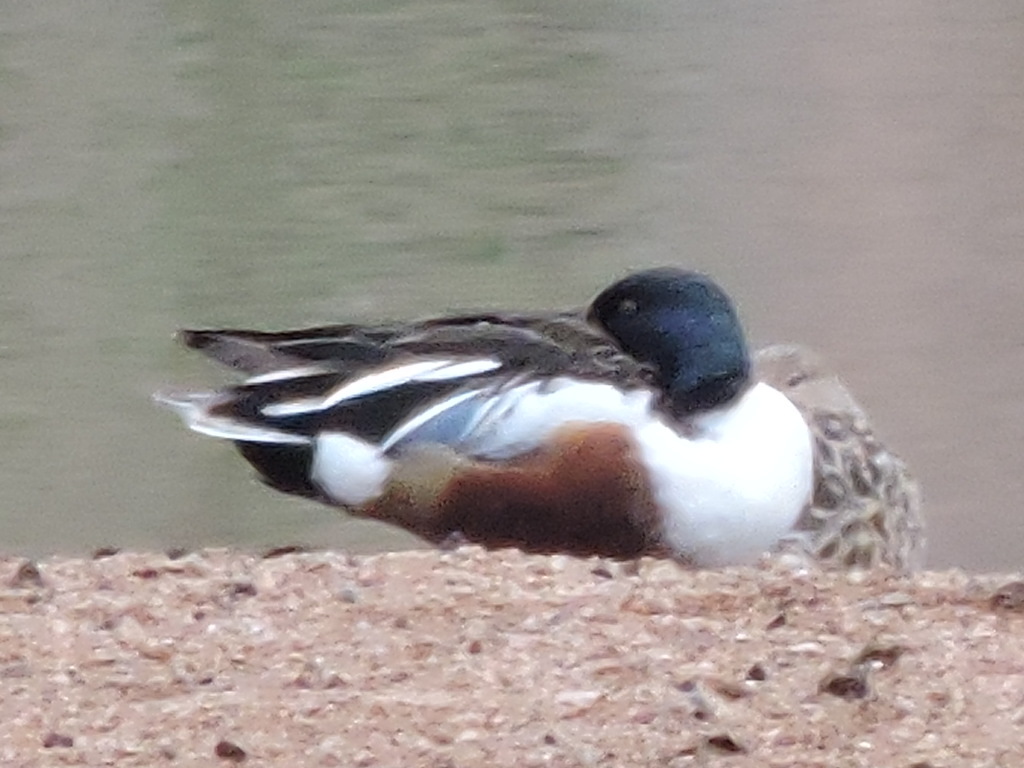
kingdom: Animalia
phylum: Chordata
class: Aves
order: Anseriformes
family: Anatidae
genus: Spatula
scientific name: Spatula clypeata
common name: Northern shoveler
